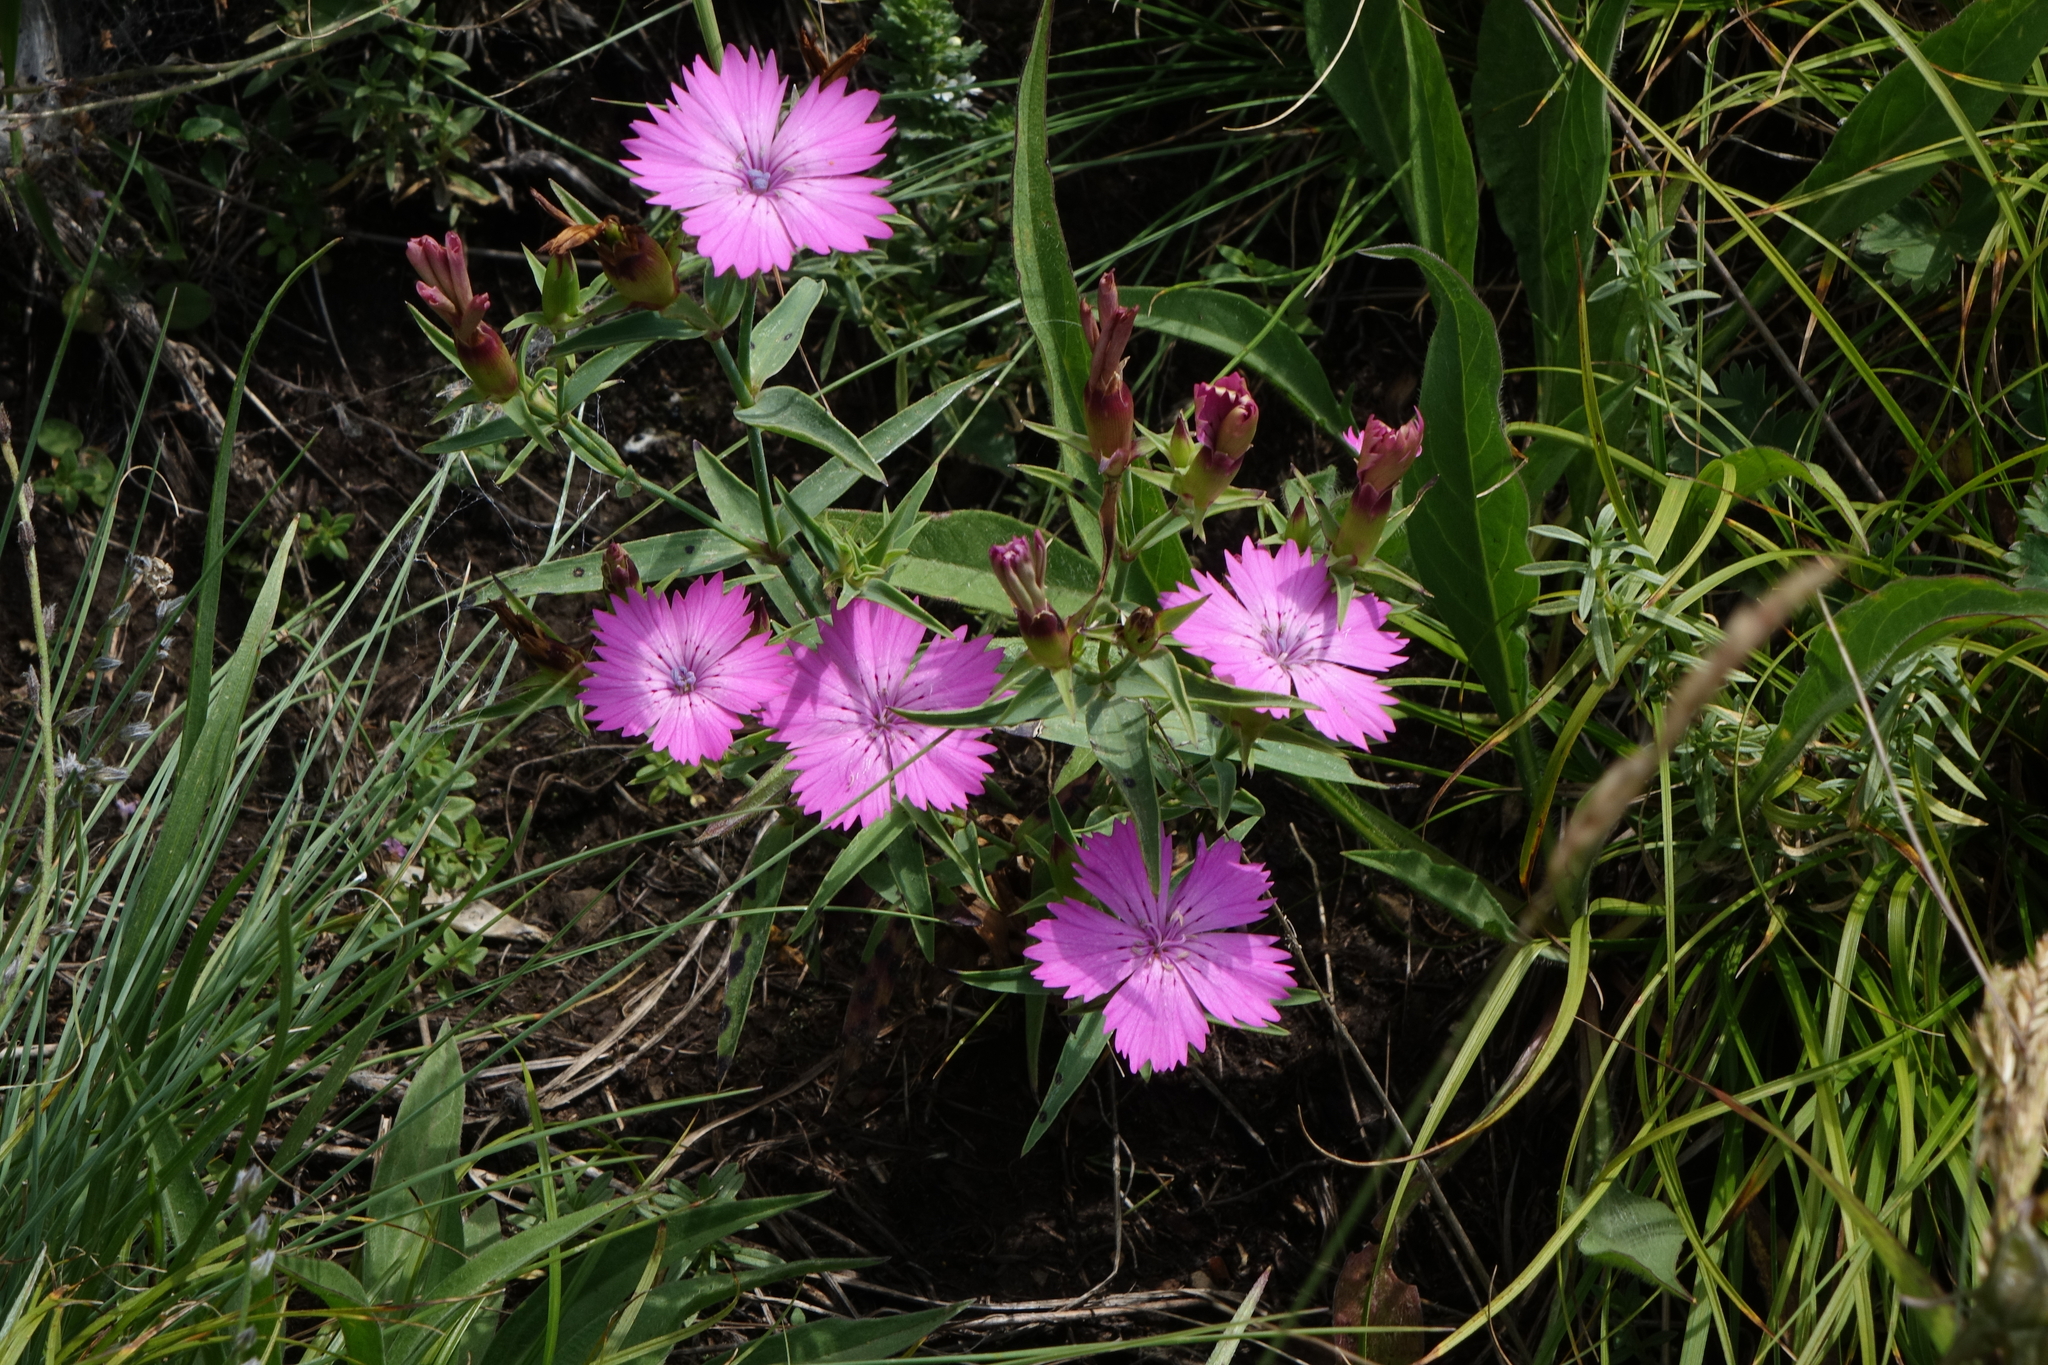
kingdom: Plantae
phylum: Tracheophyta
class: Magnoliopsida
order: Caryophyllales
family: Caryophyllaceae
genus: Dianthus
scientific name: Dianthus caucaseus
